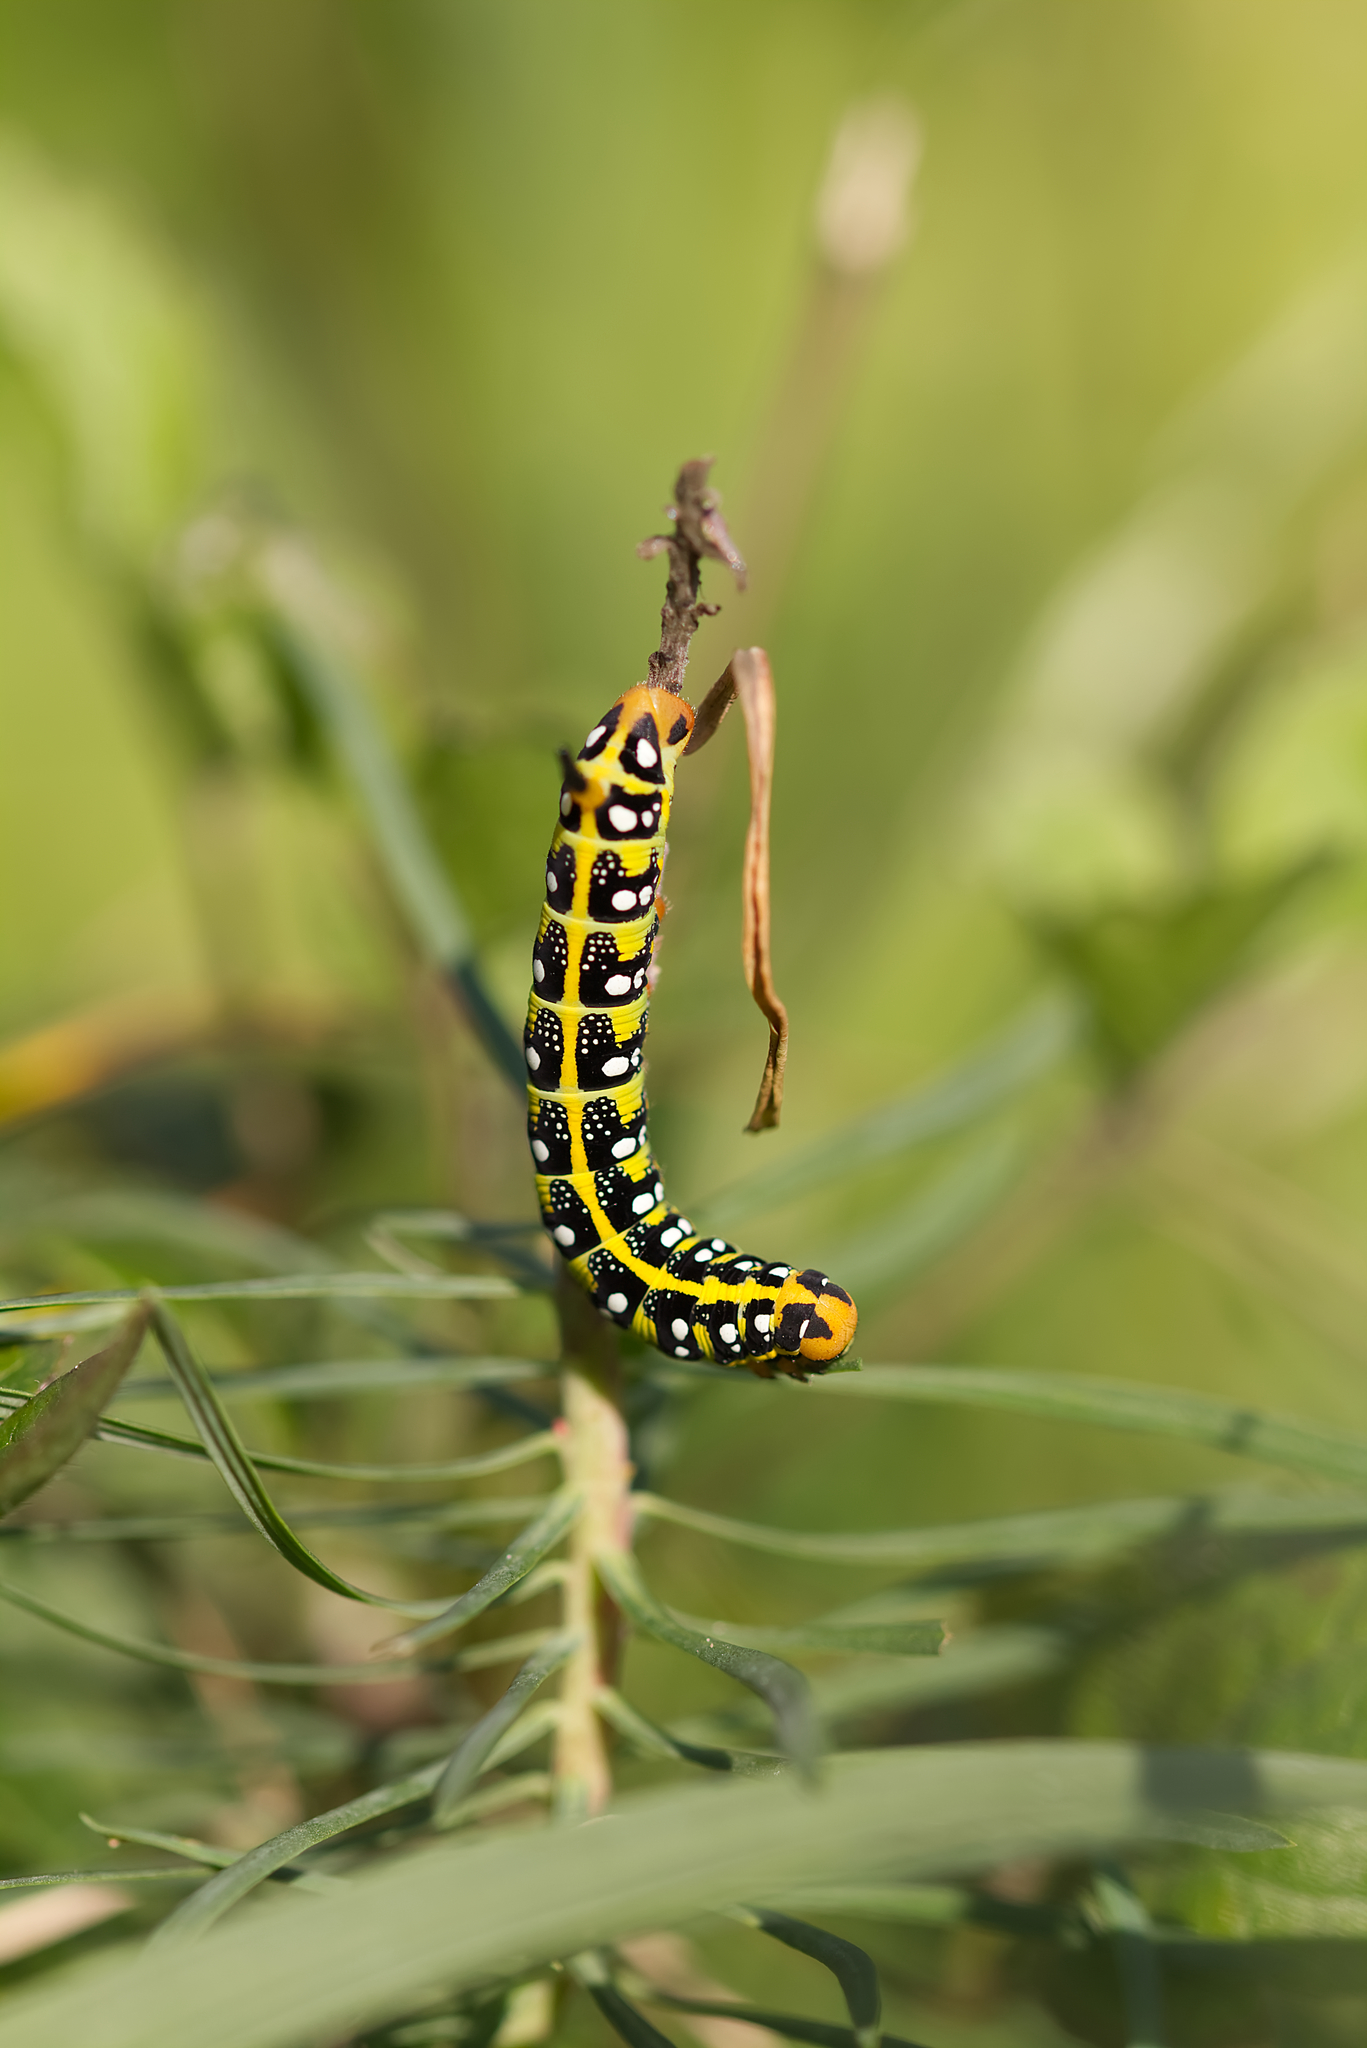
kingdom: Animalia
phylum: Arthropoda
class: Insecta
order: Lepidoptera
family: Sphingidae
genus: Hyles
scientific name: Hyles euphorbiae
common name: Spurge hawk-moth
